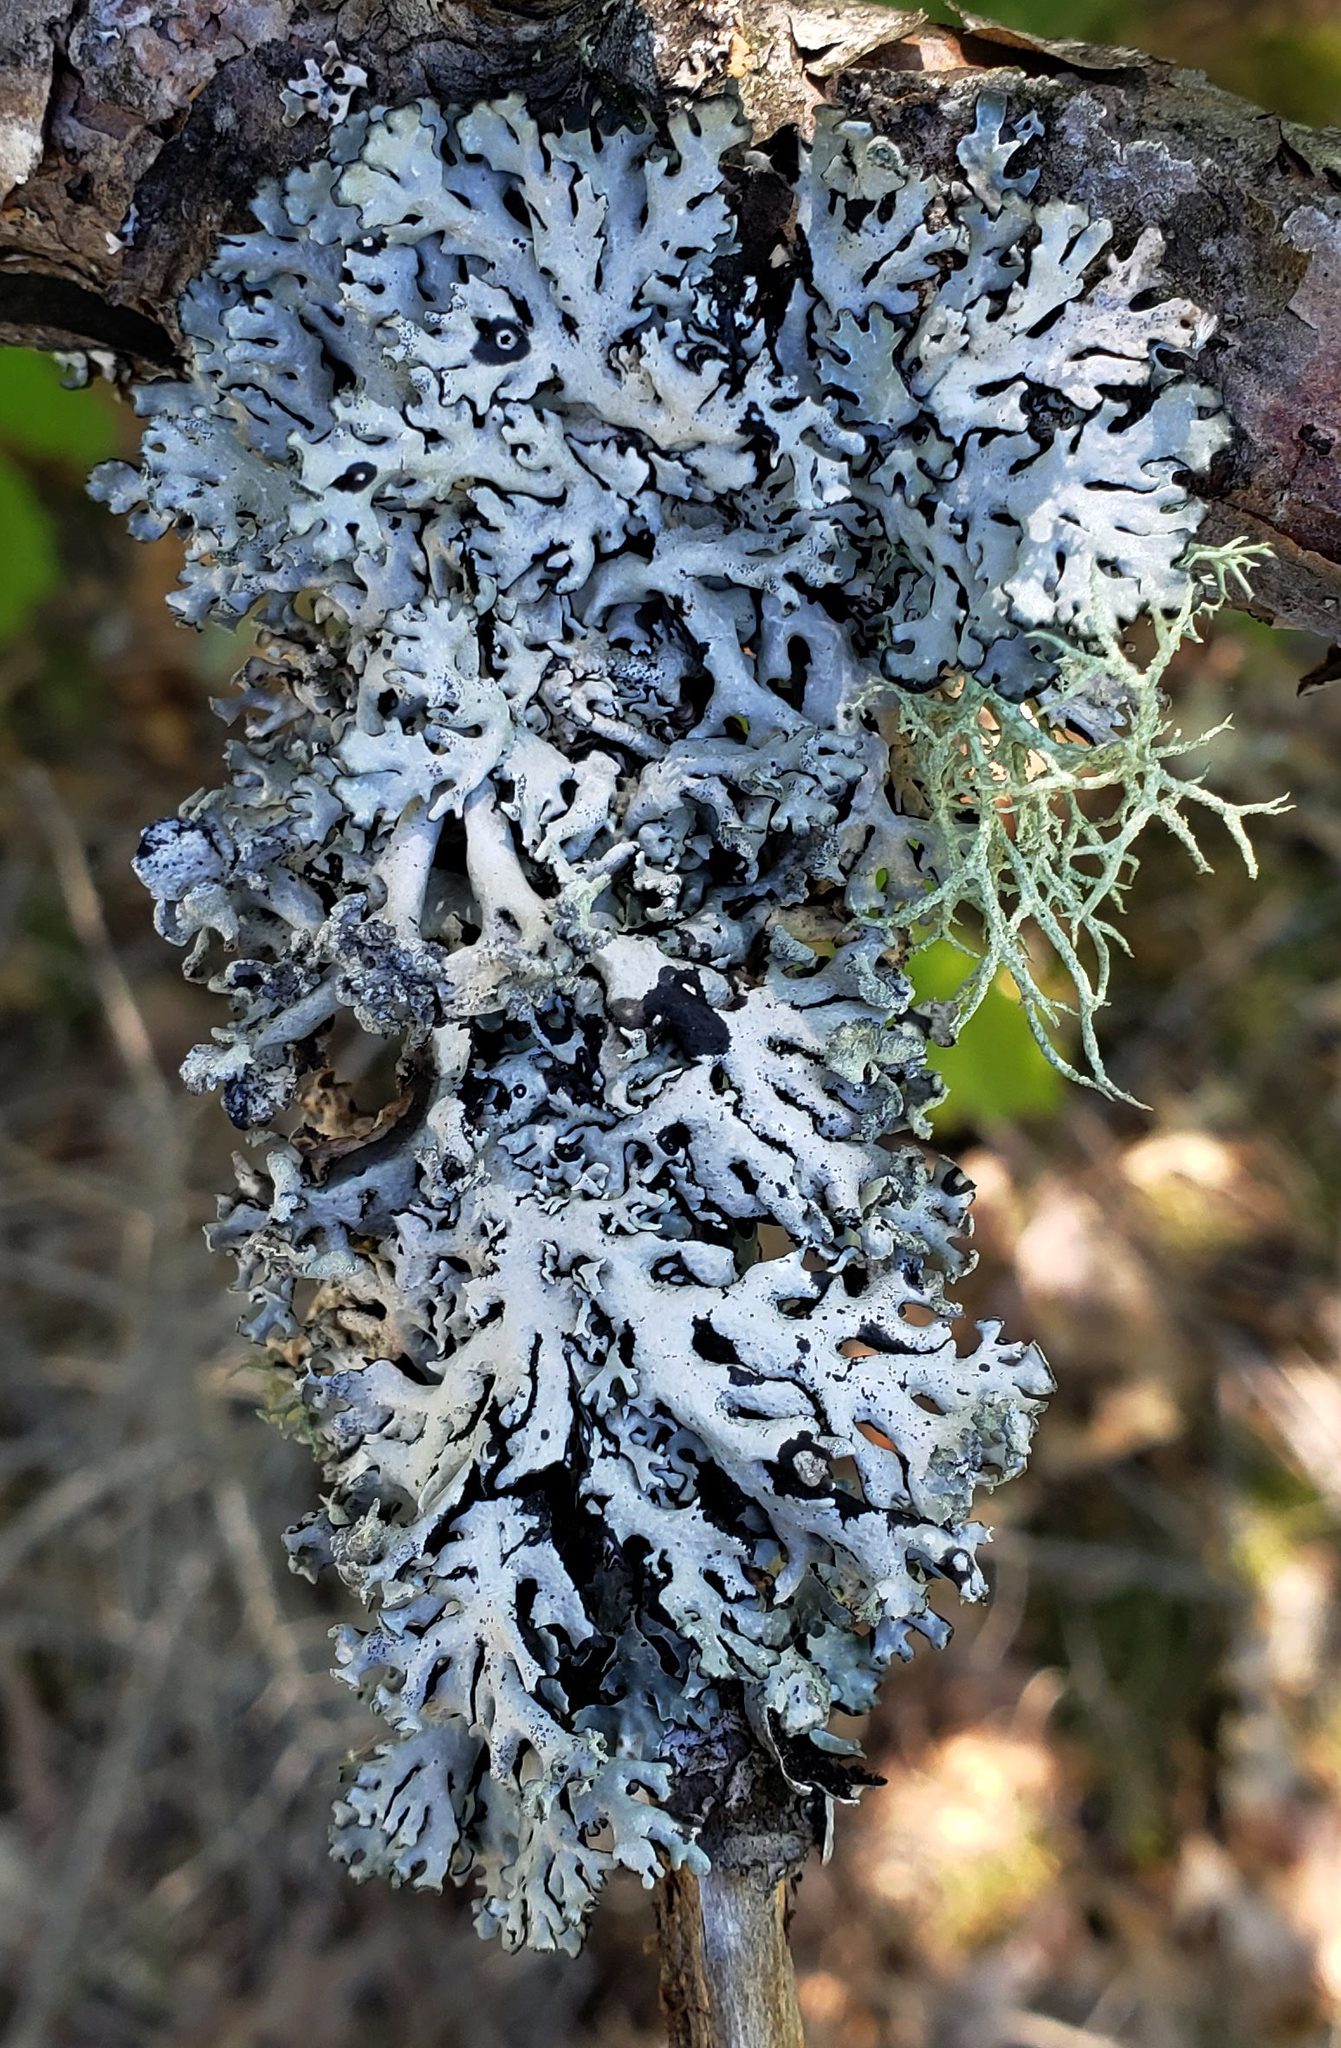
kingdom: Fungi
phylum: Ascomycota
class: Lecanoromycetes
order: Lecanorales
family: Parmeliaceae
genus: Hypogymnia
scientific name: Hypogymnia physodes
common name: Dark crottle
